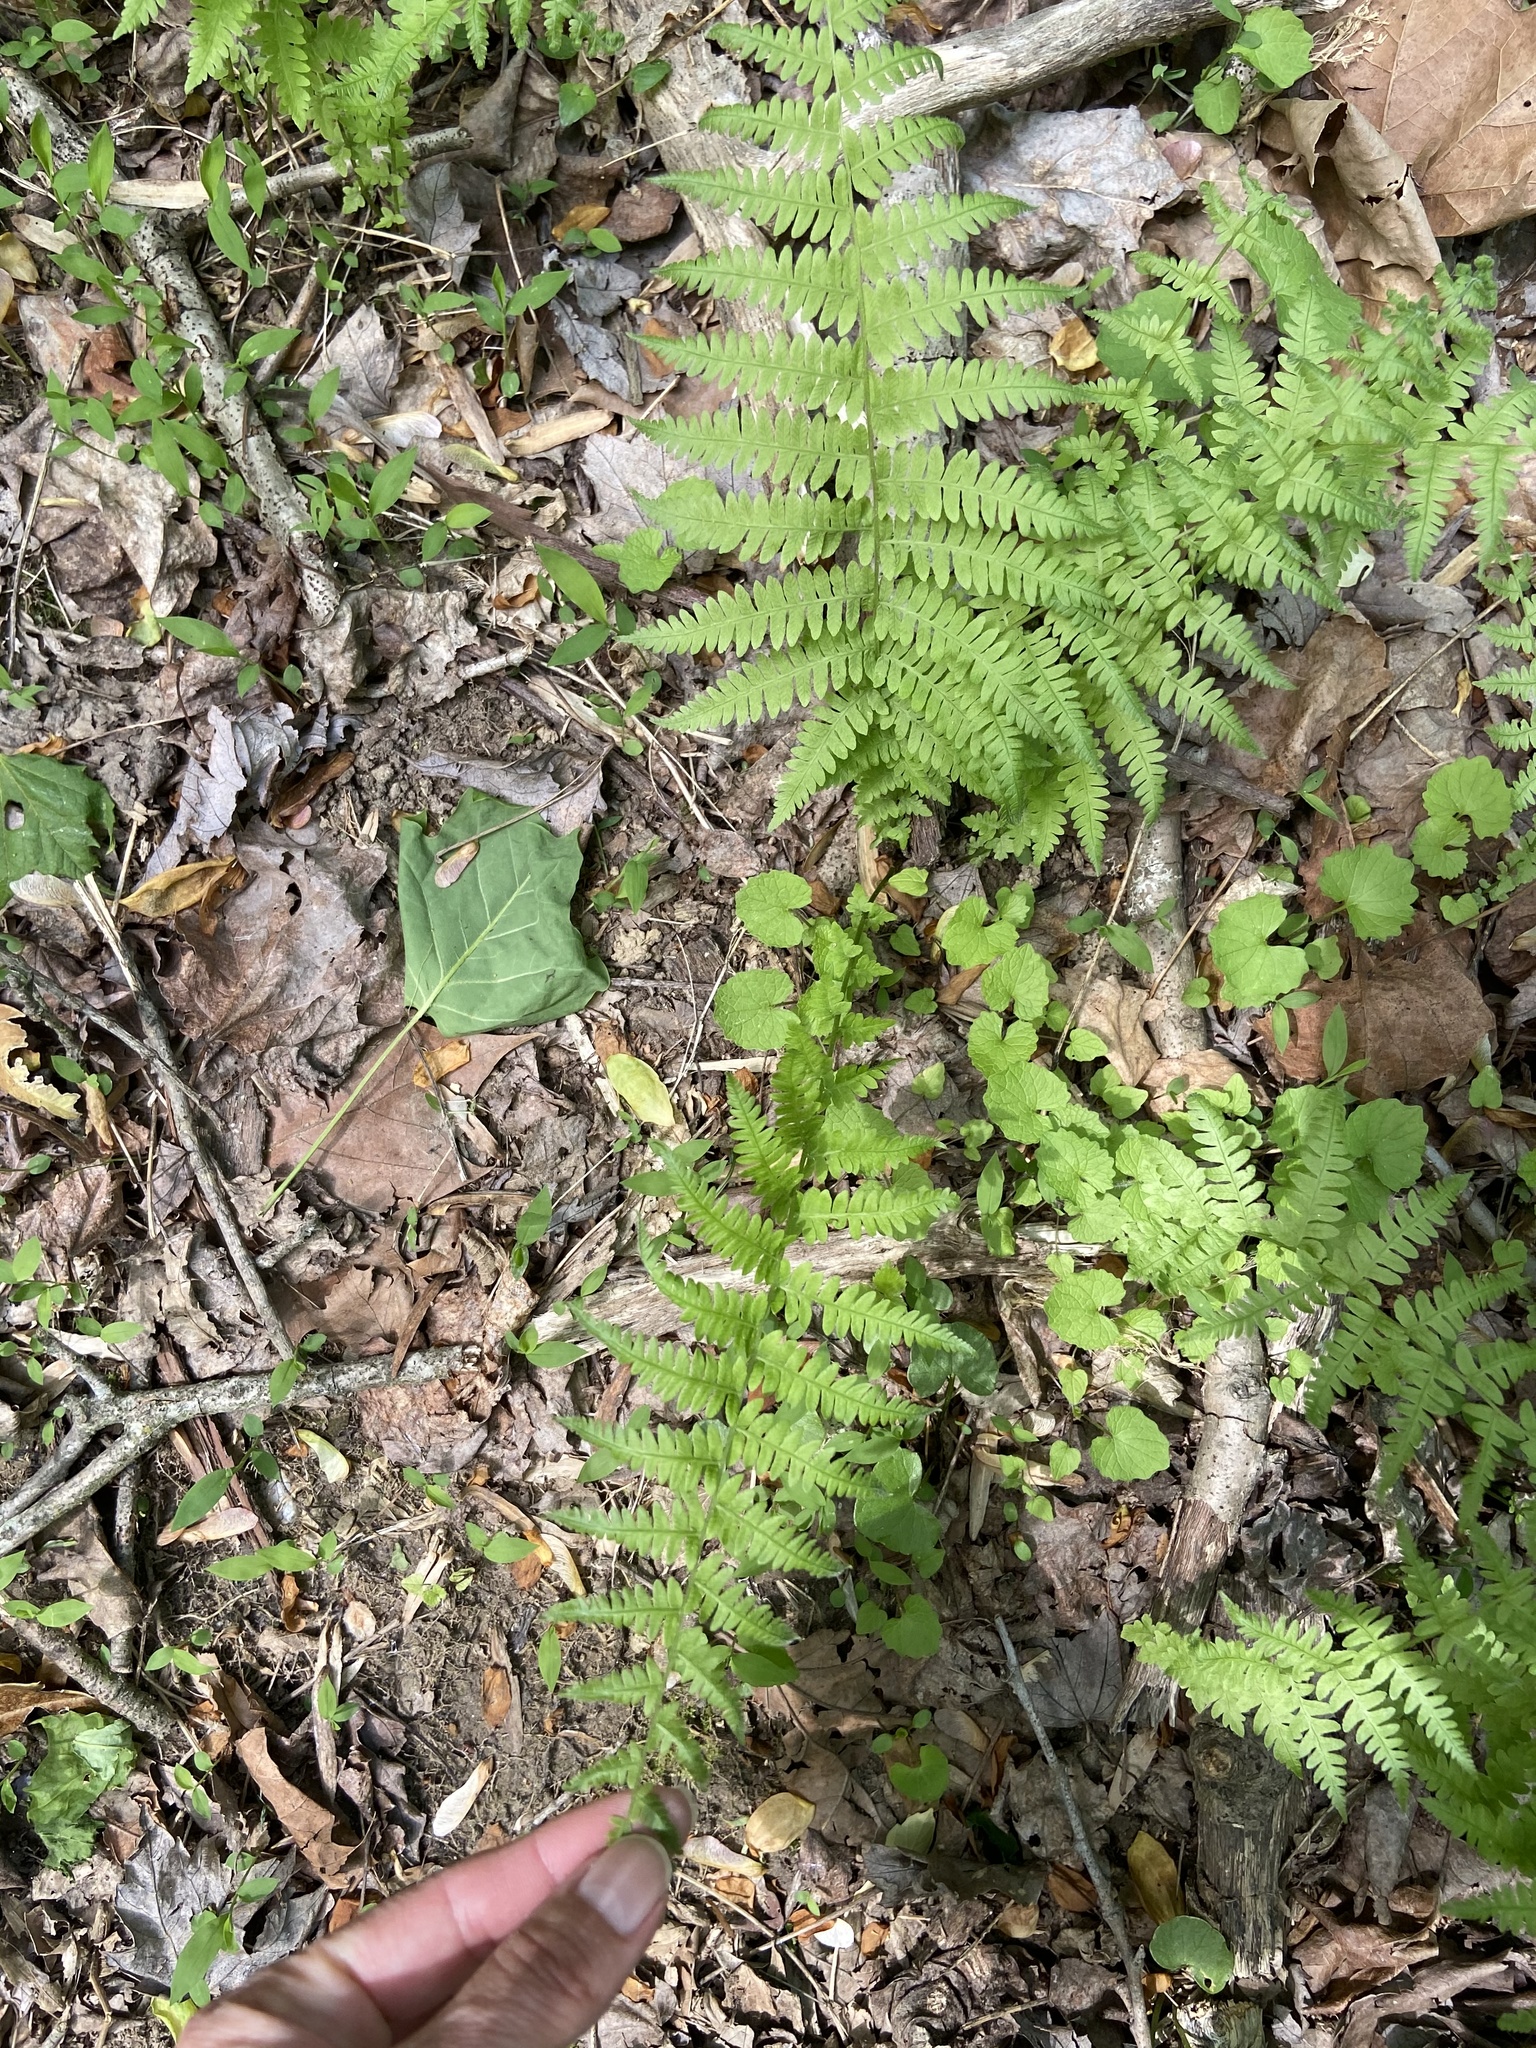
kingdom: Plantae
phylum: Tracheophyta
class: Polypodiopsida
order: Polypodiales
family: Thelypteridaceae
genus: Amauropelta
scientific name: Amauropelta noveboracensis
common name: New york fern
